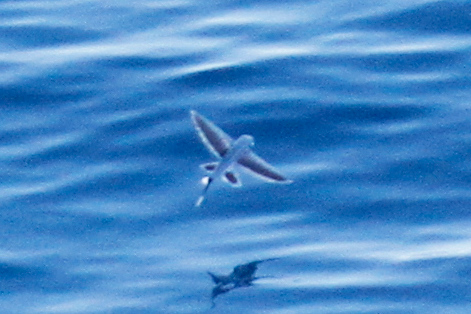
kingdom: Animalia
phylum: Chordata
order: Beloniformes
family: Exocoetidae
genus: Cheilopogon
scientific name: Cheilopogon xenopterus
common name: Whitetip flyingfish
